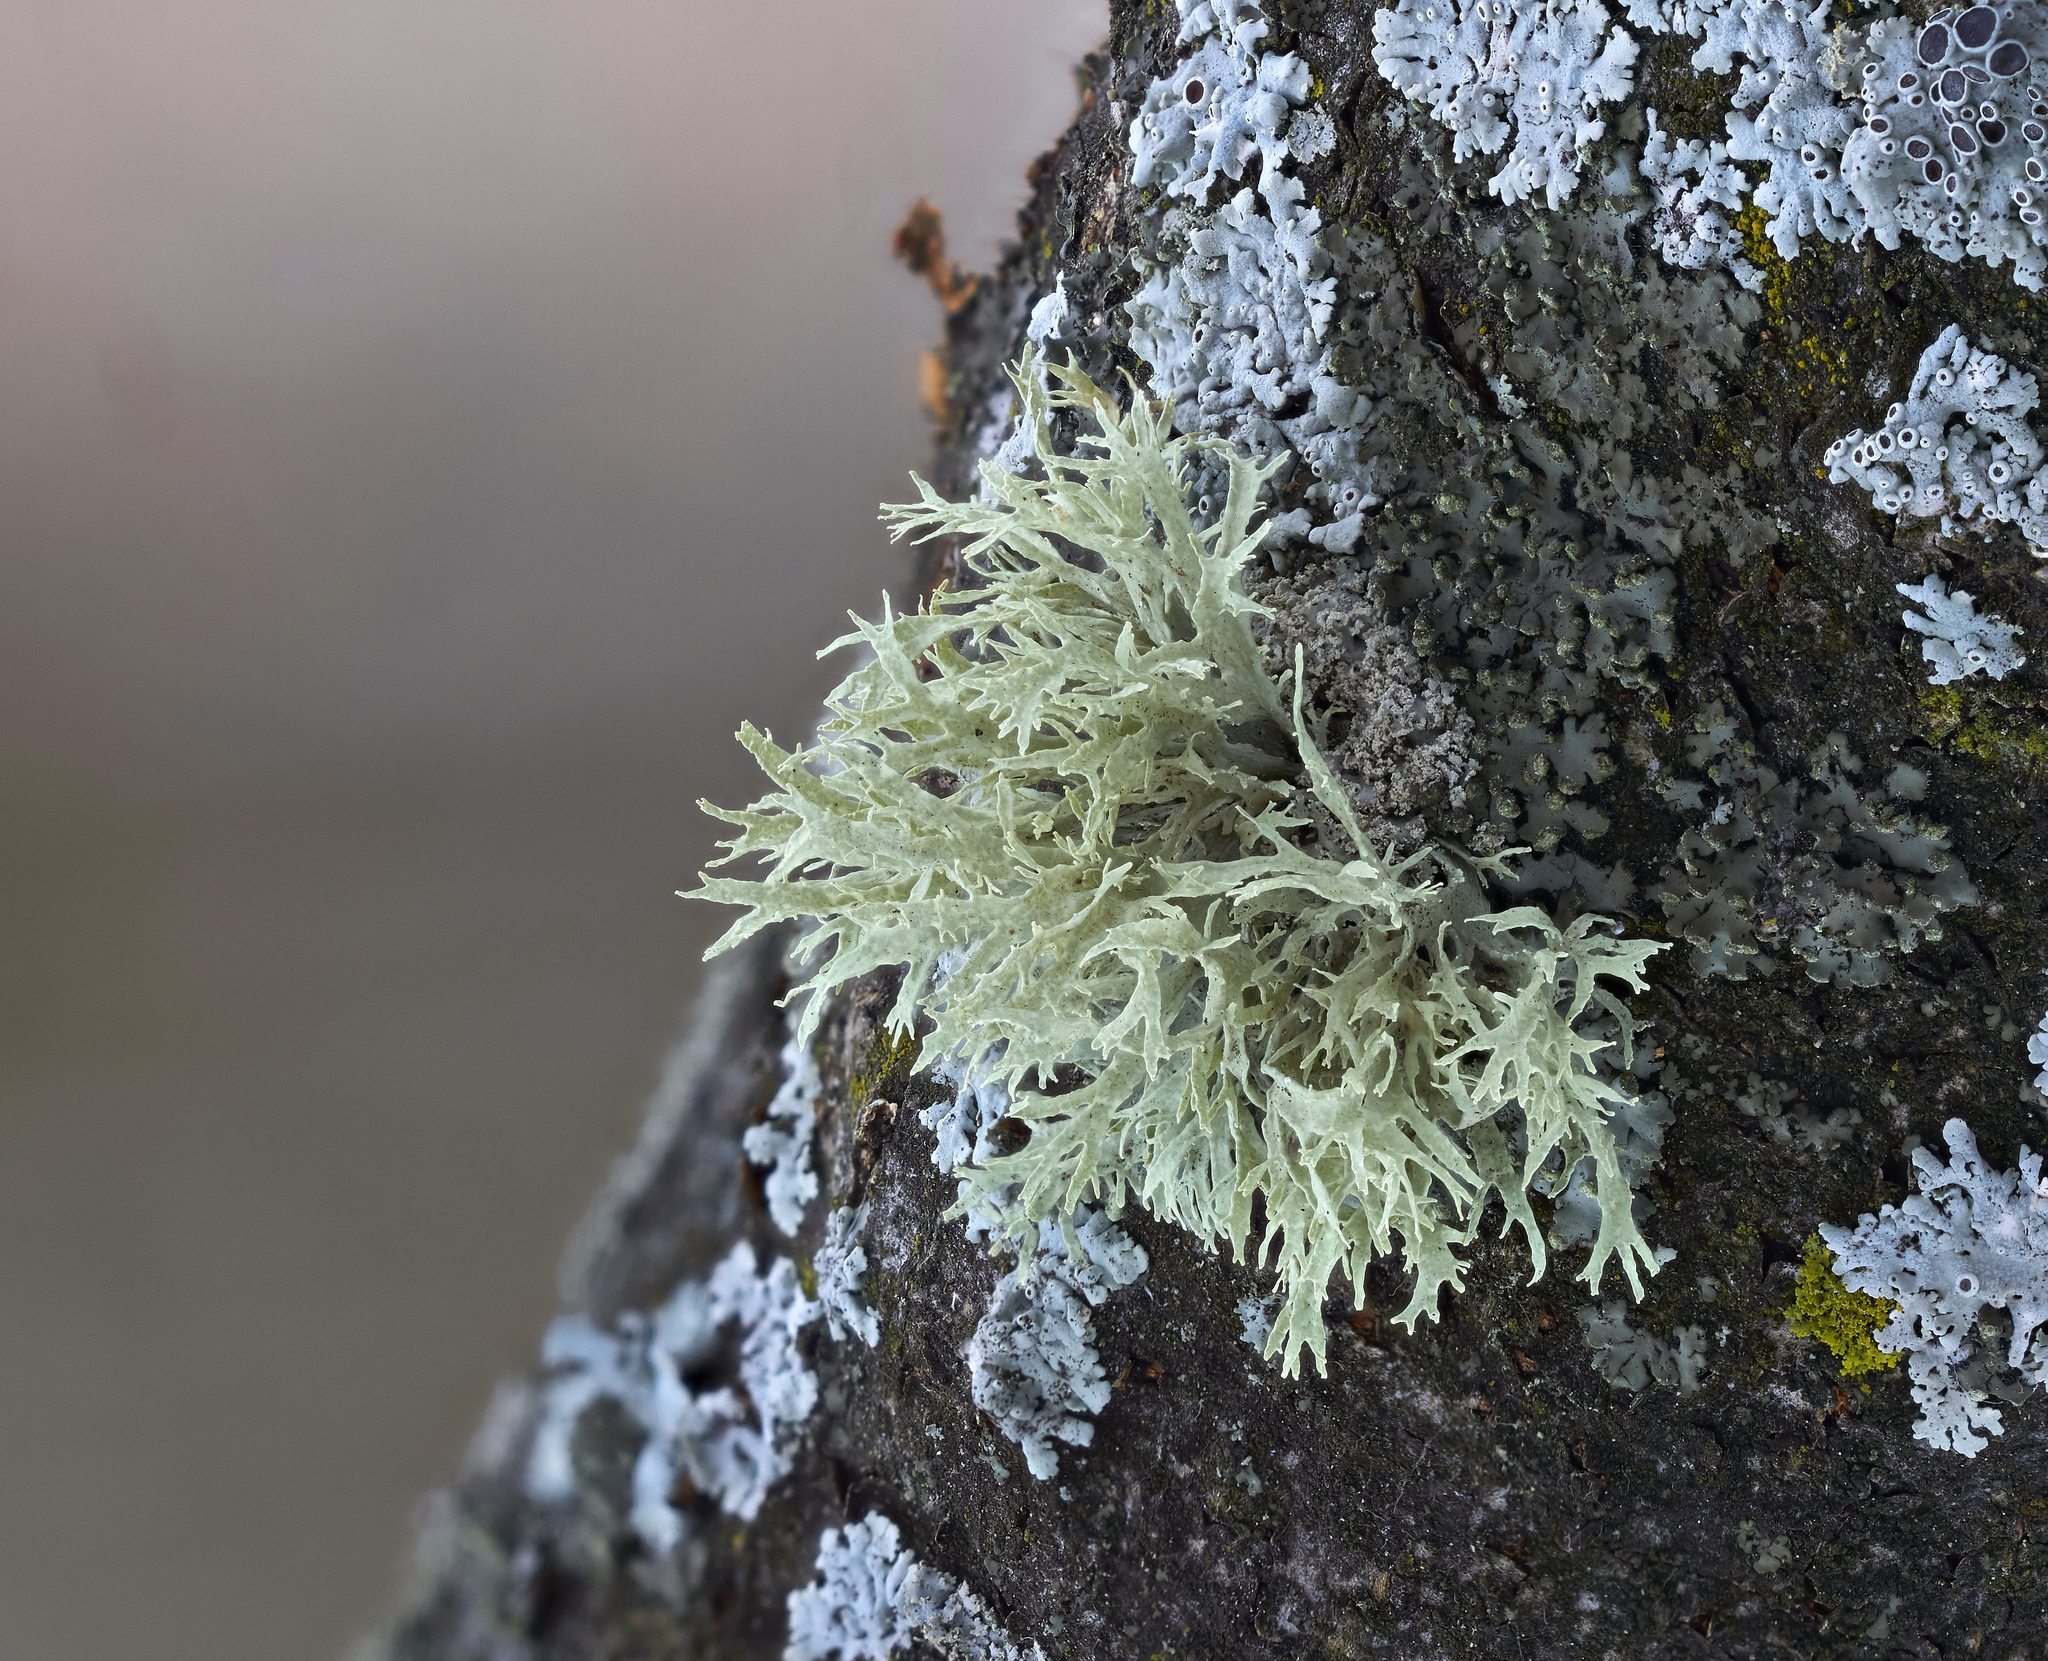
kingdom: Fungi
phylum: Ascomycota
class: Lecanoromycetes
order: Lecanorales
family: Ramalinaceae
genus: Ramalina
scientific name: Ramalina americana
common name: Sinewed bush lichen
